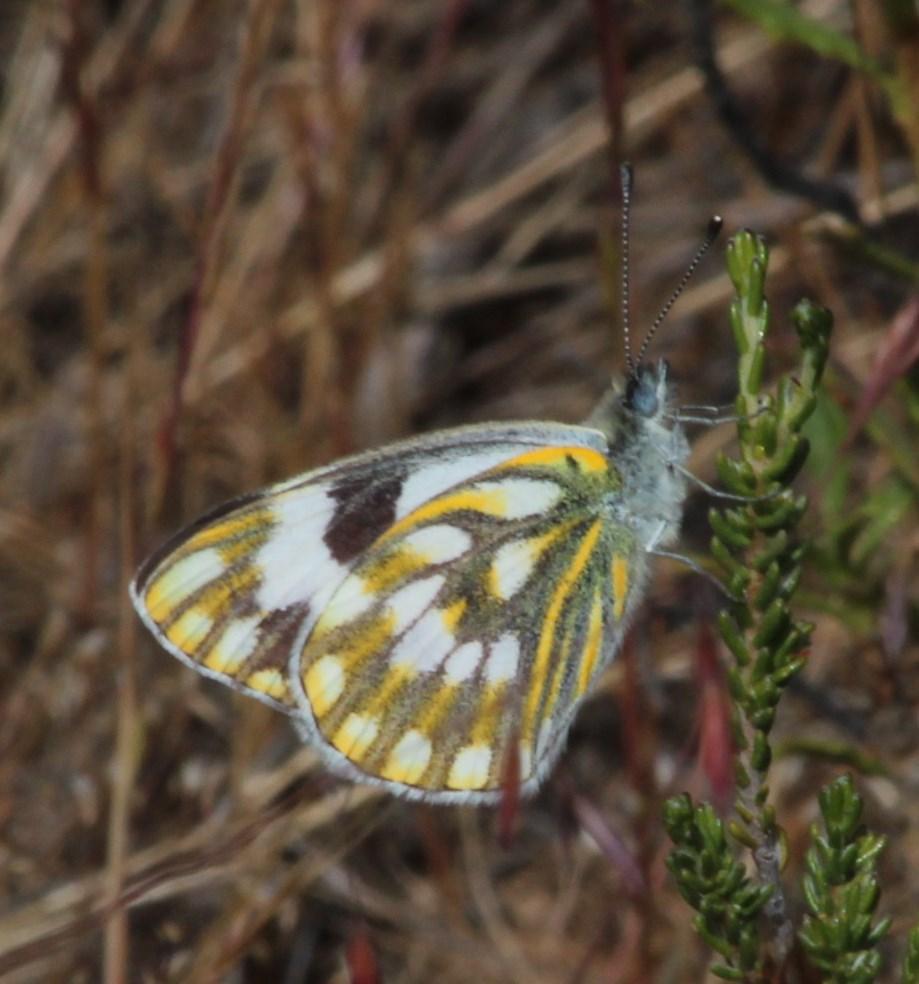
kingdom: Animalia
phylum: Arthropoda
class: Insecta
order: Lepidoptera
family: Pieridae
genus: Pontia
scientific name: Pontia helice
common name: Meadow white
